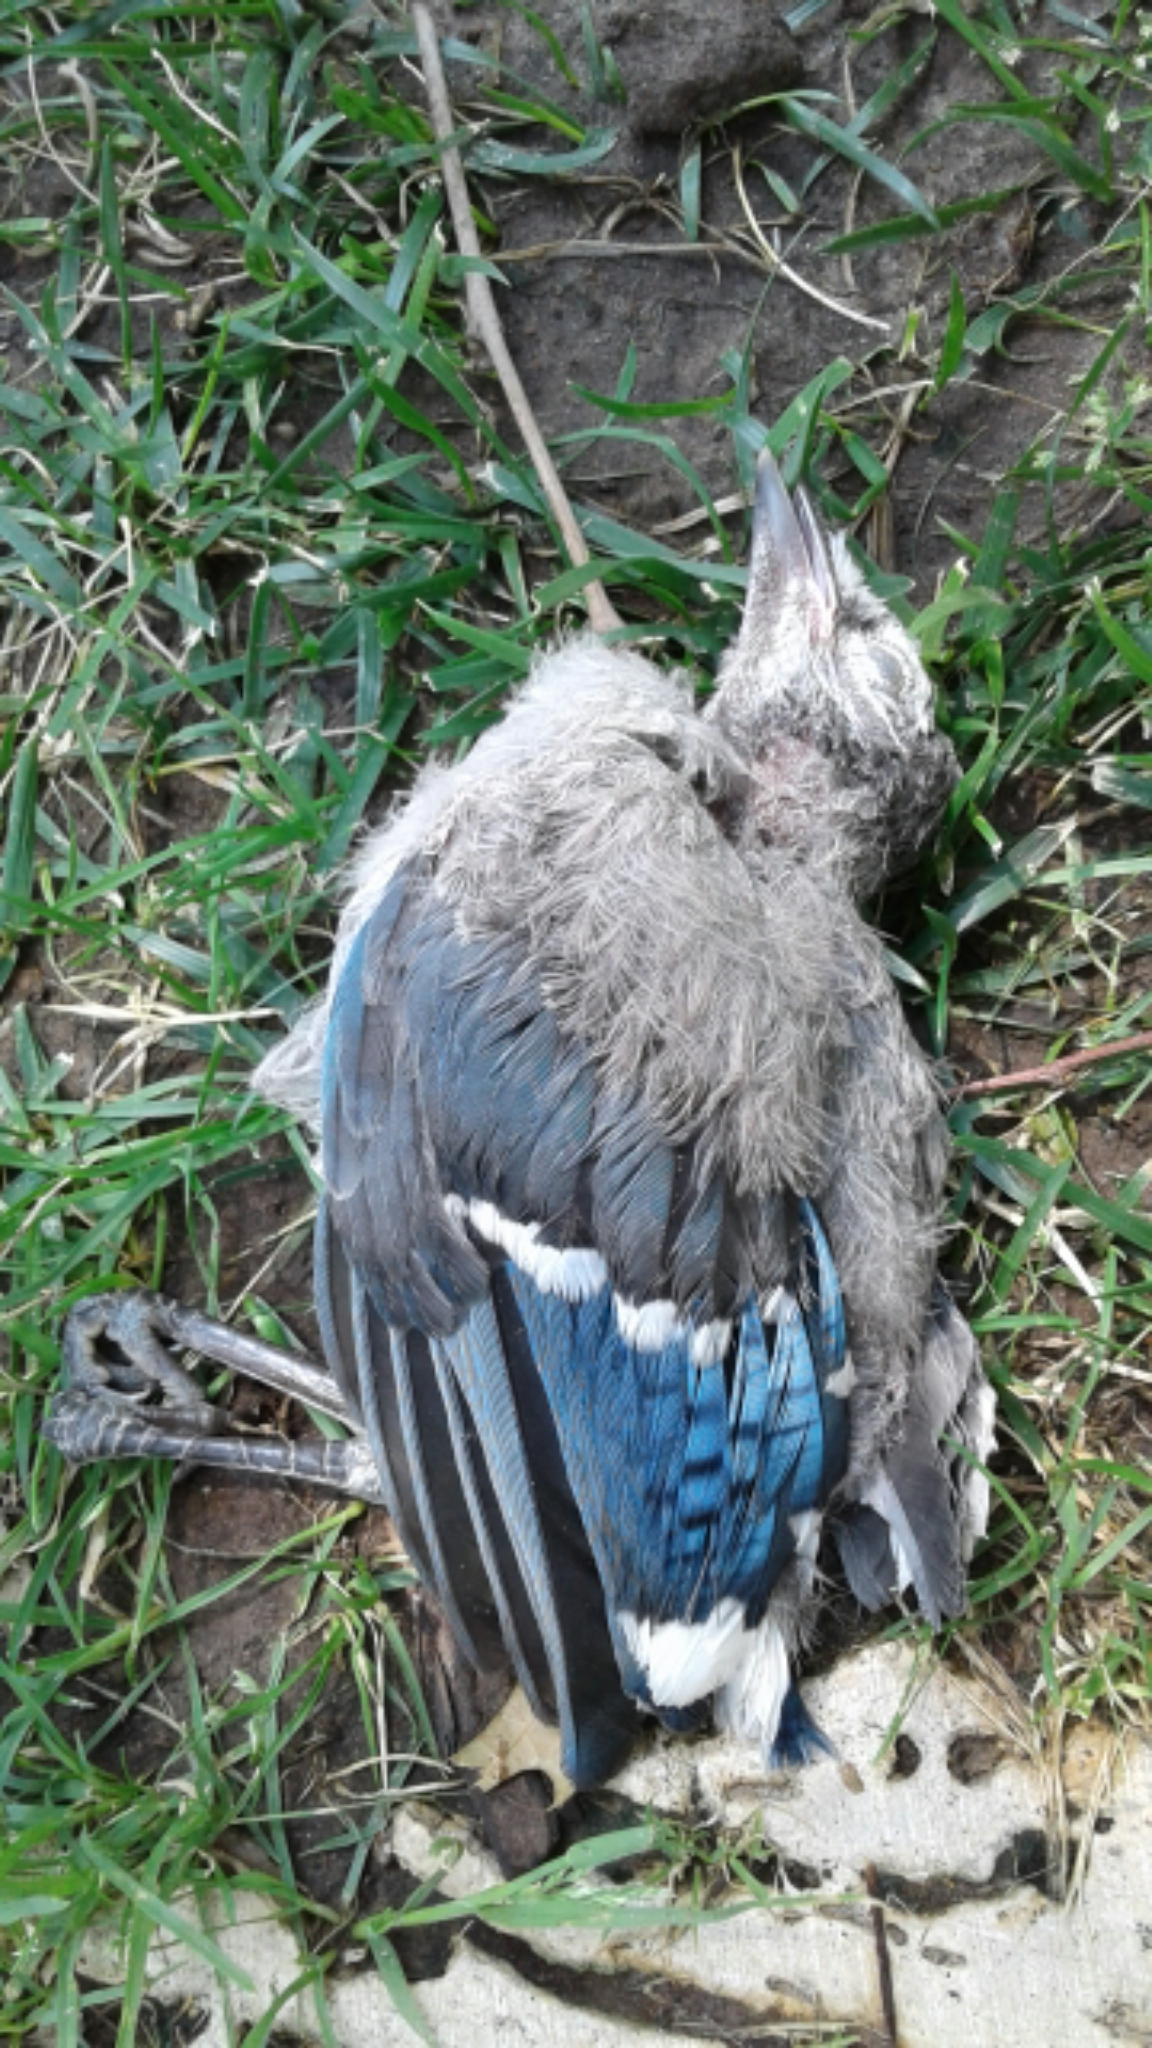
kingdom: Animalia
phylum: Chordata
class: Aves
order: Passeriformes
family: Corvidae
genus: Cyanocitta
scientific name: Cyanocitta cristata
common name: Blue jay
